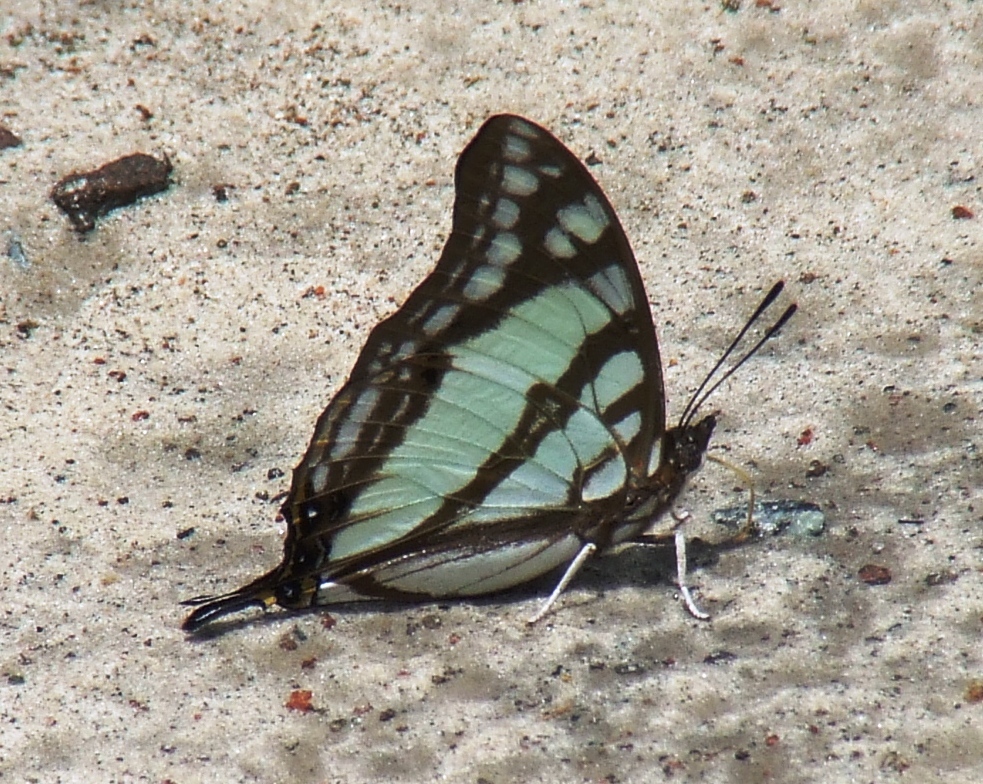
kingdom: Animalia
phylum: Arthropoda
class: Insecta
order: Lepidoptera
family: Nymphalidae
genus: Polyura
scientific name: Polyura
